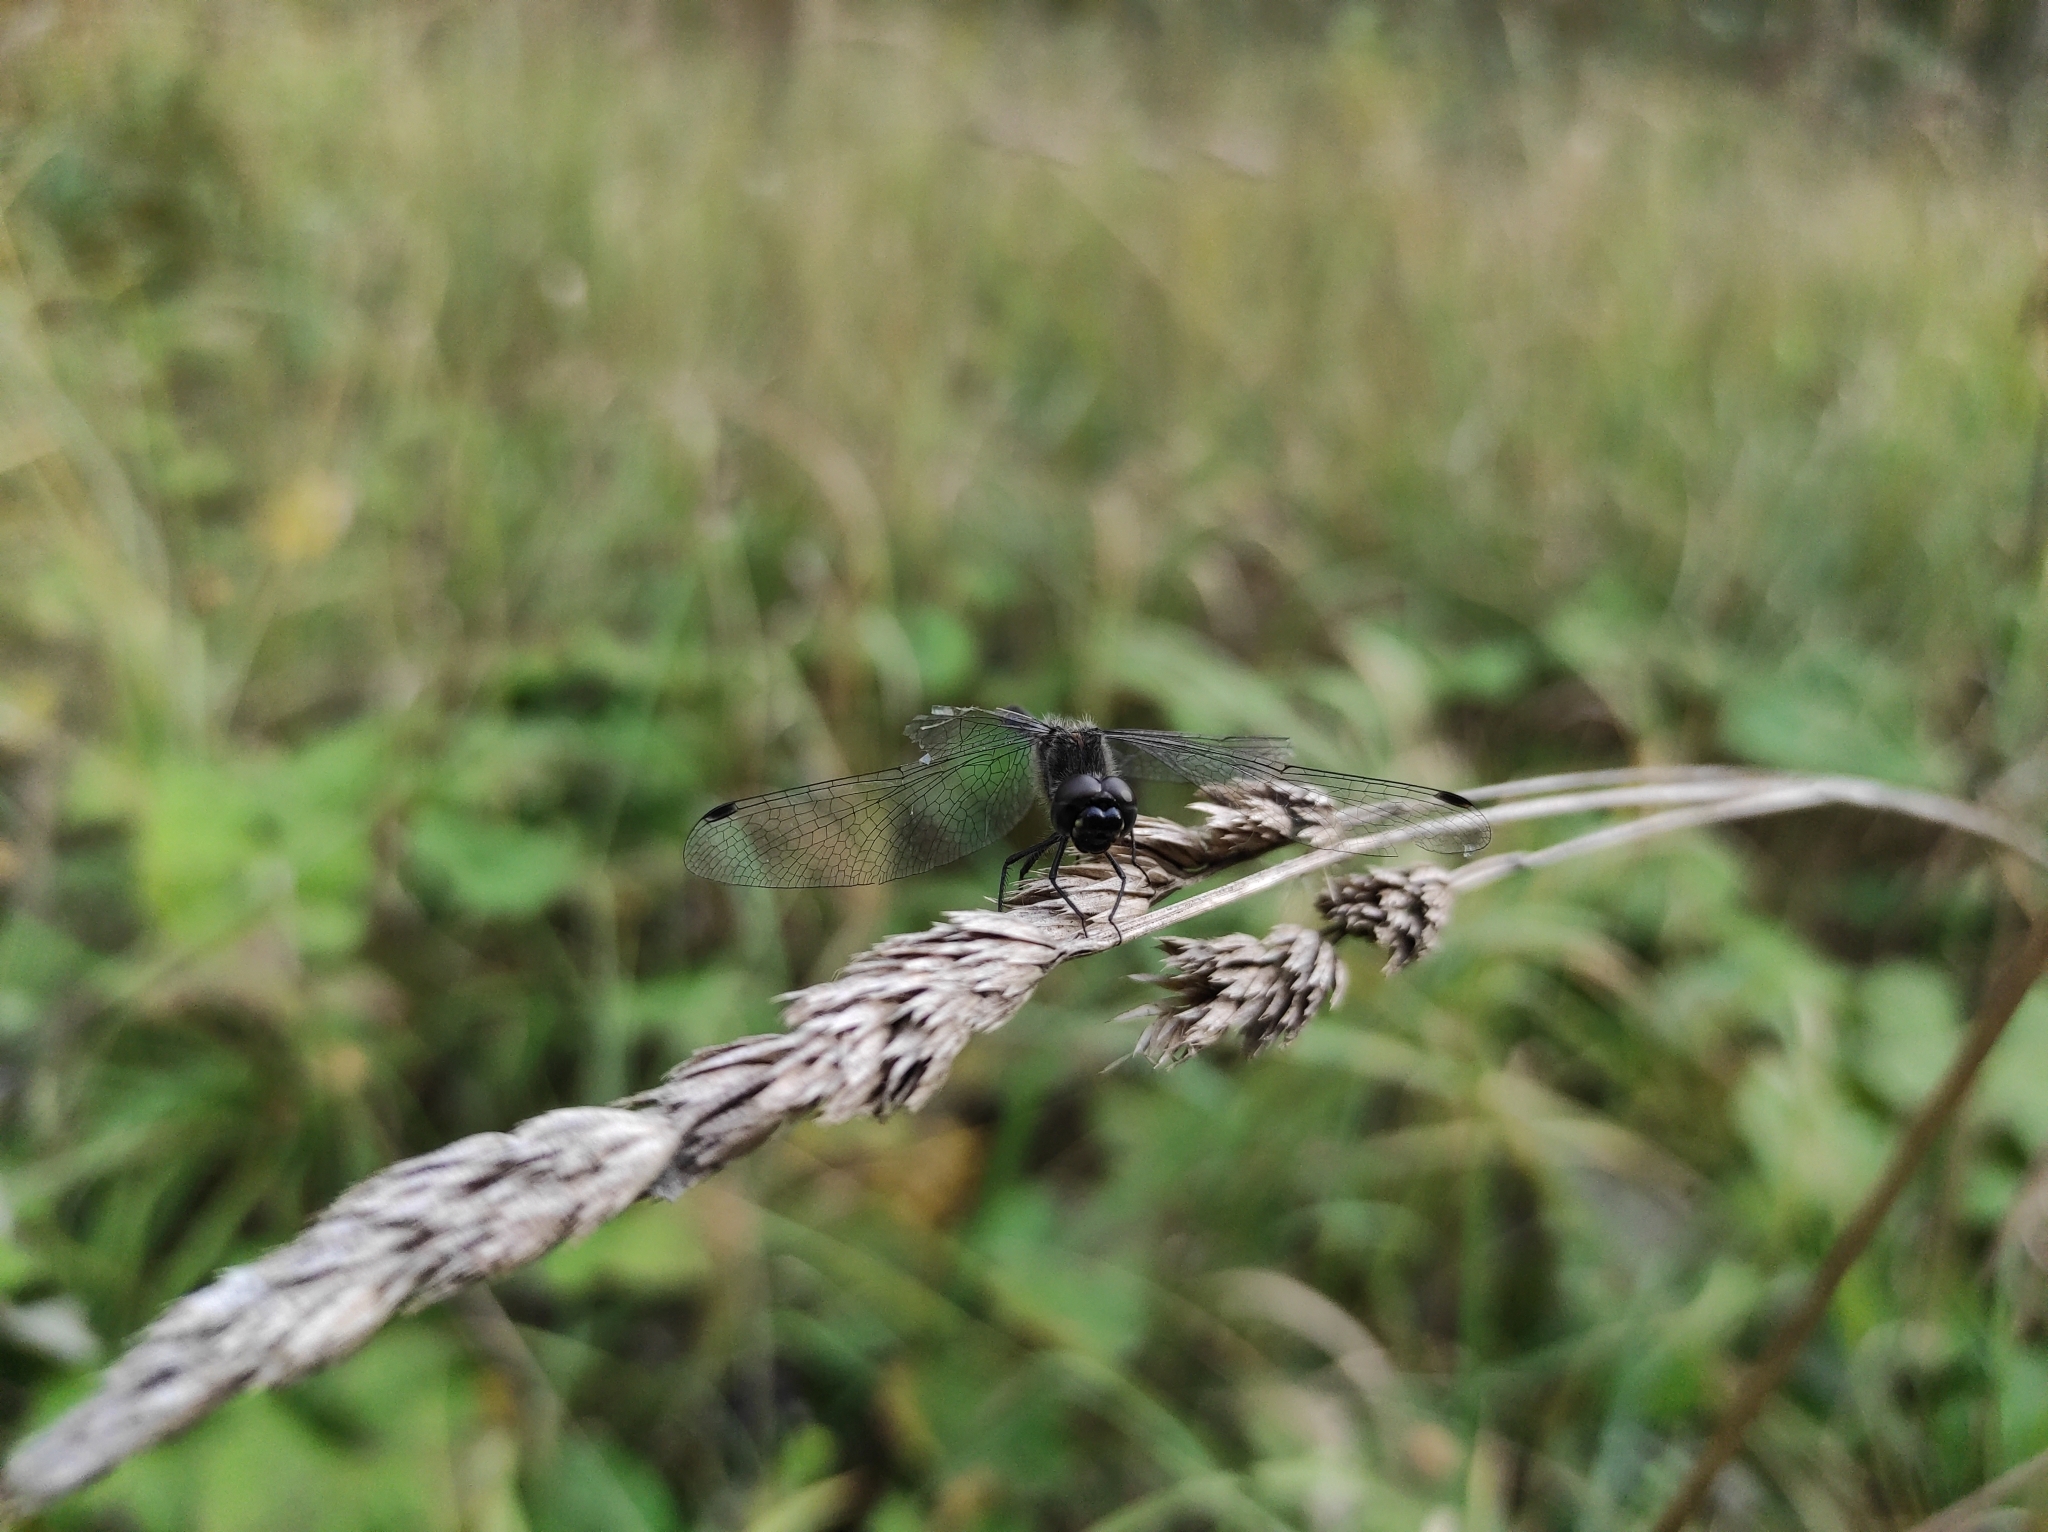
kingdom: Animalia
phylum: Arthropoda
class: Insecta
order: Odonata
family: Libellulidae
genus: Sympetrum
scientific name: Sympetrum danae
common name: Black darter
